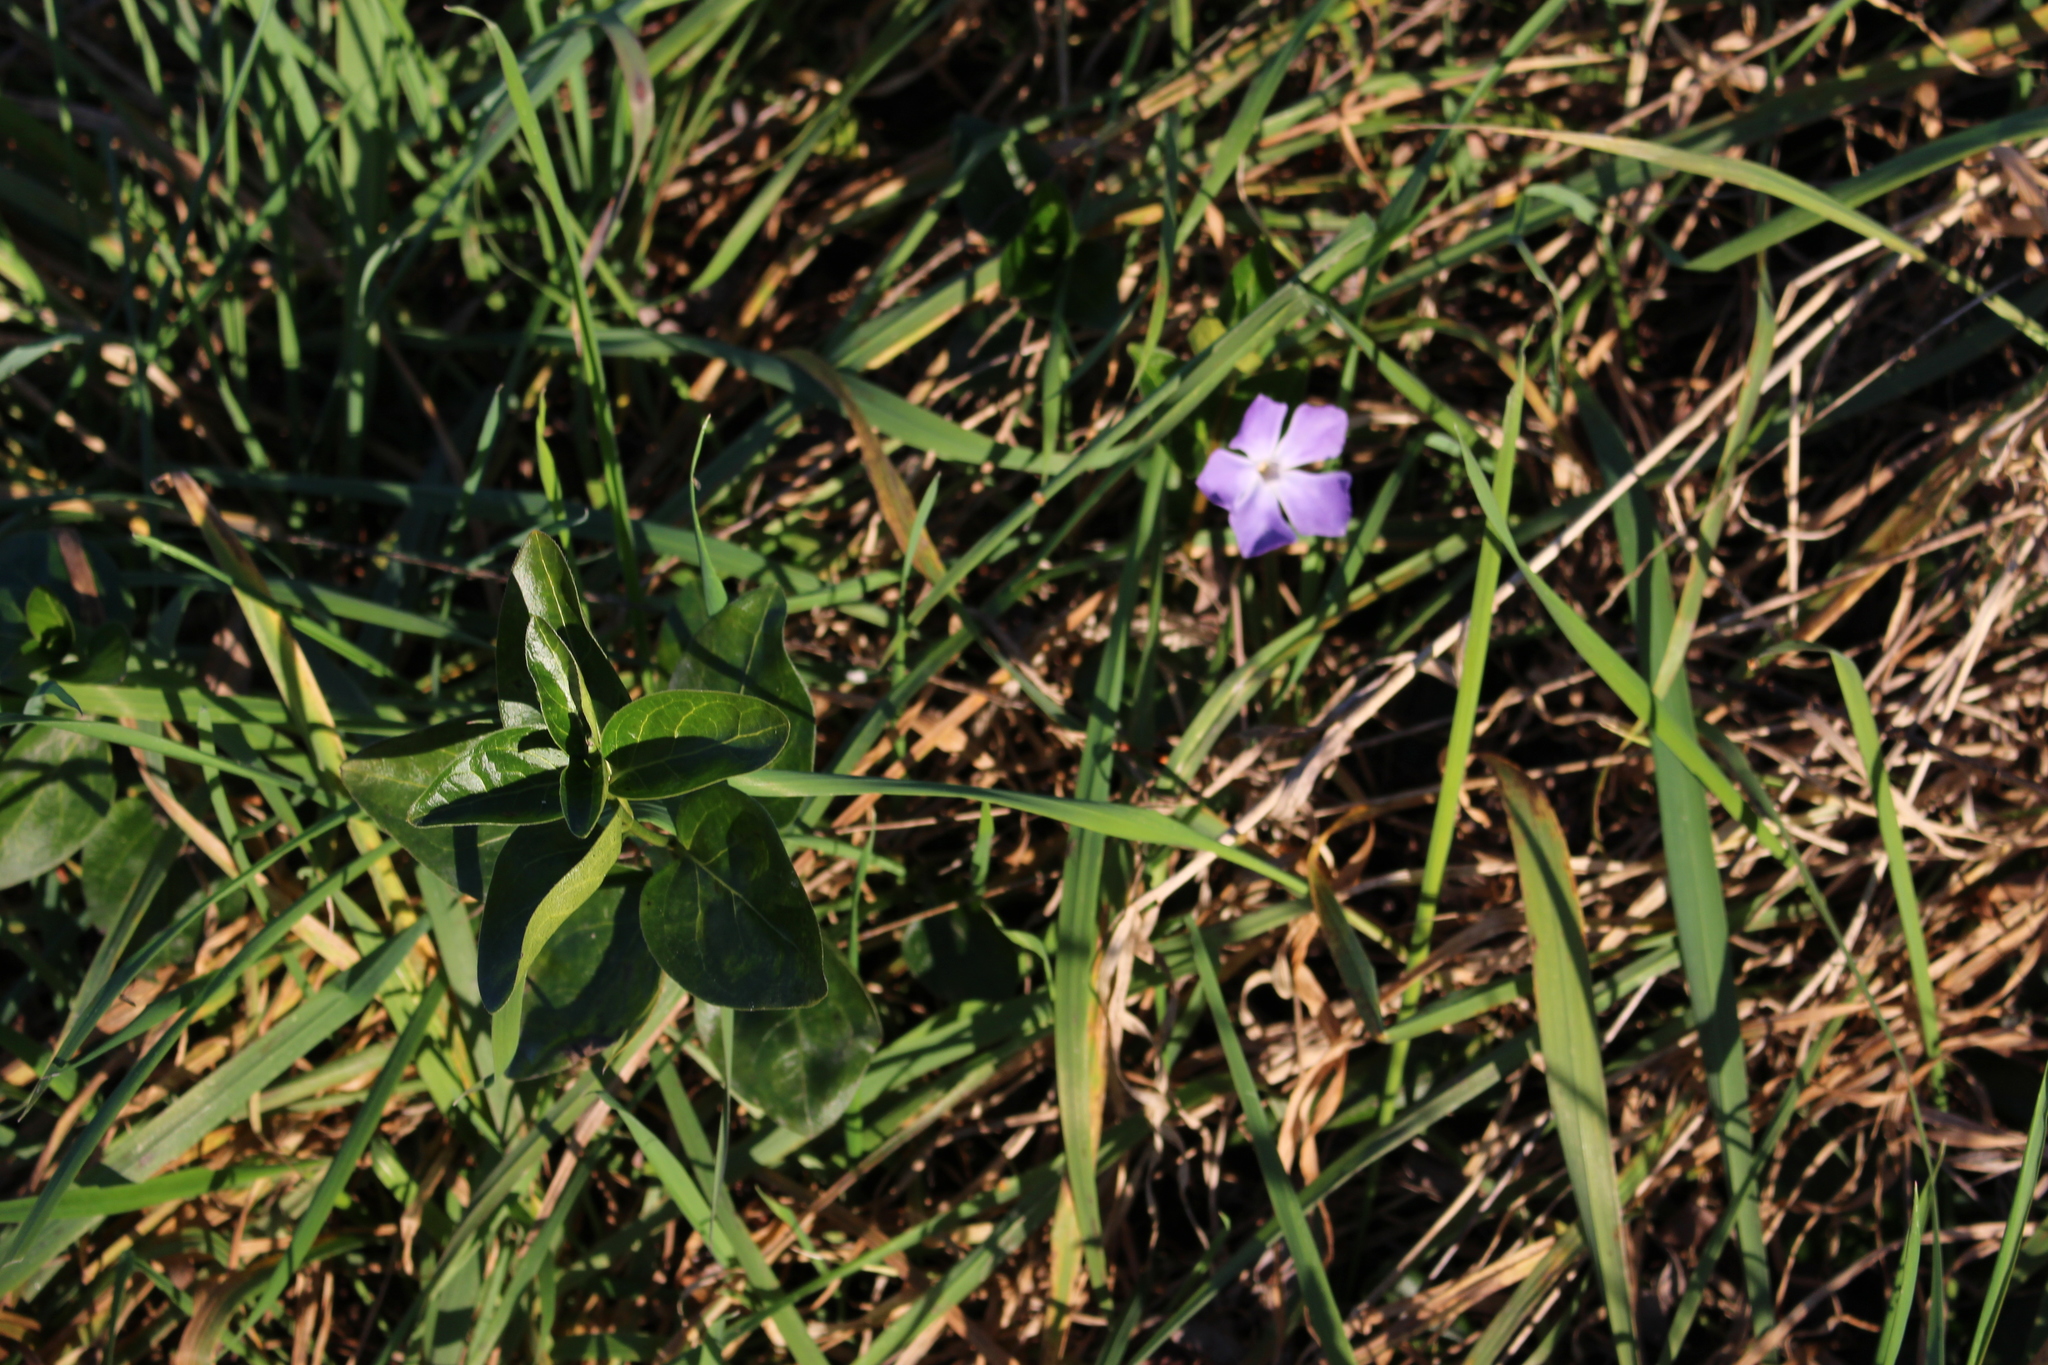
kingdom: Plantae
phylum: Tracheophyta
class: Magnoliopsida
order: Gentianales
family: Apocynaceae
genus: Vinca
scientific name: Vinca major
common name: Greater periwinkle
